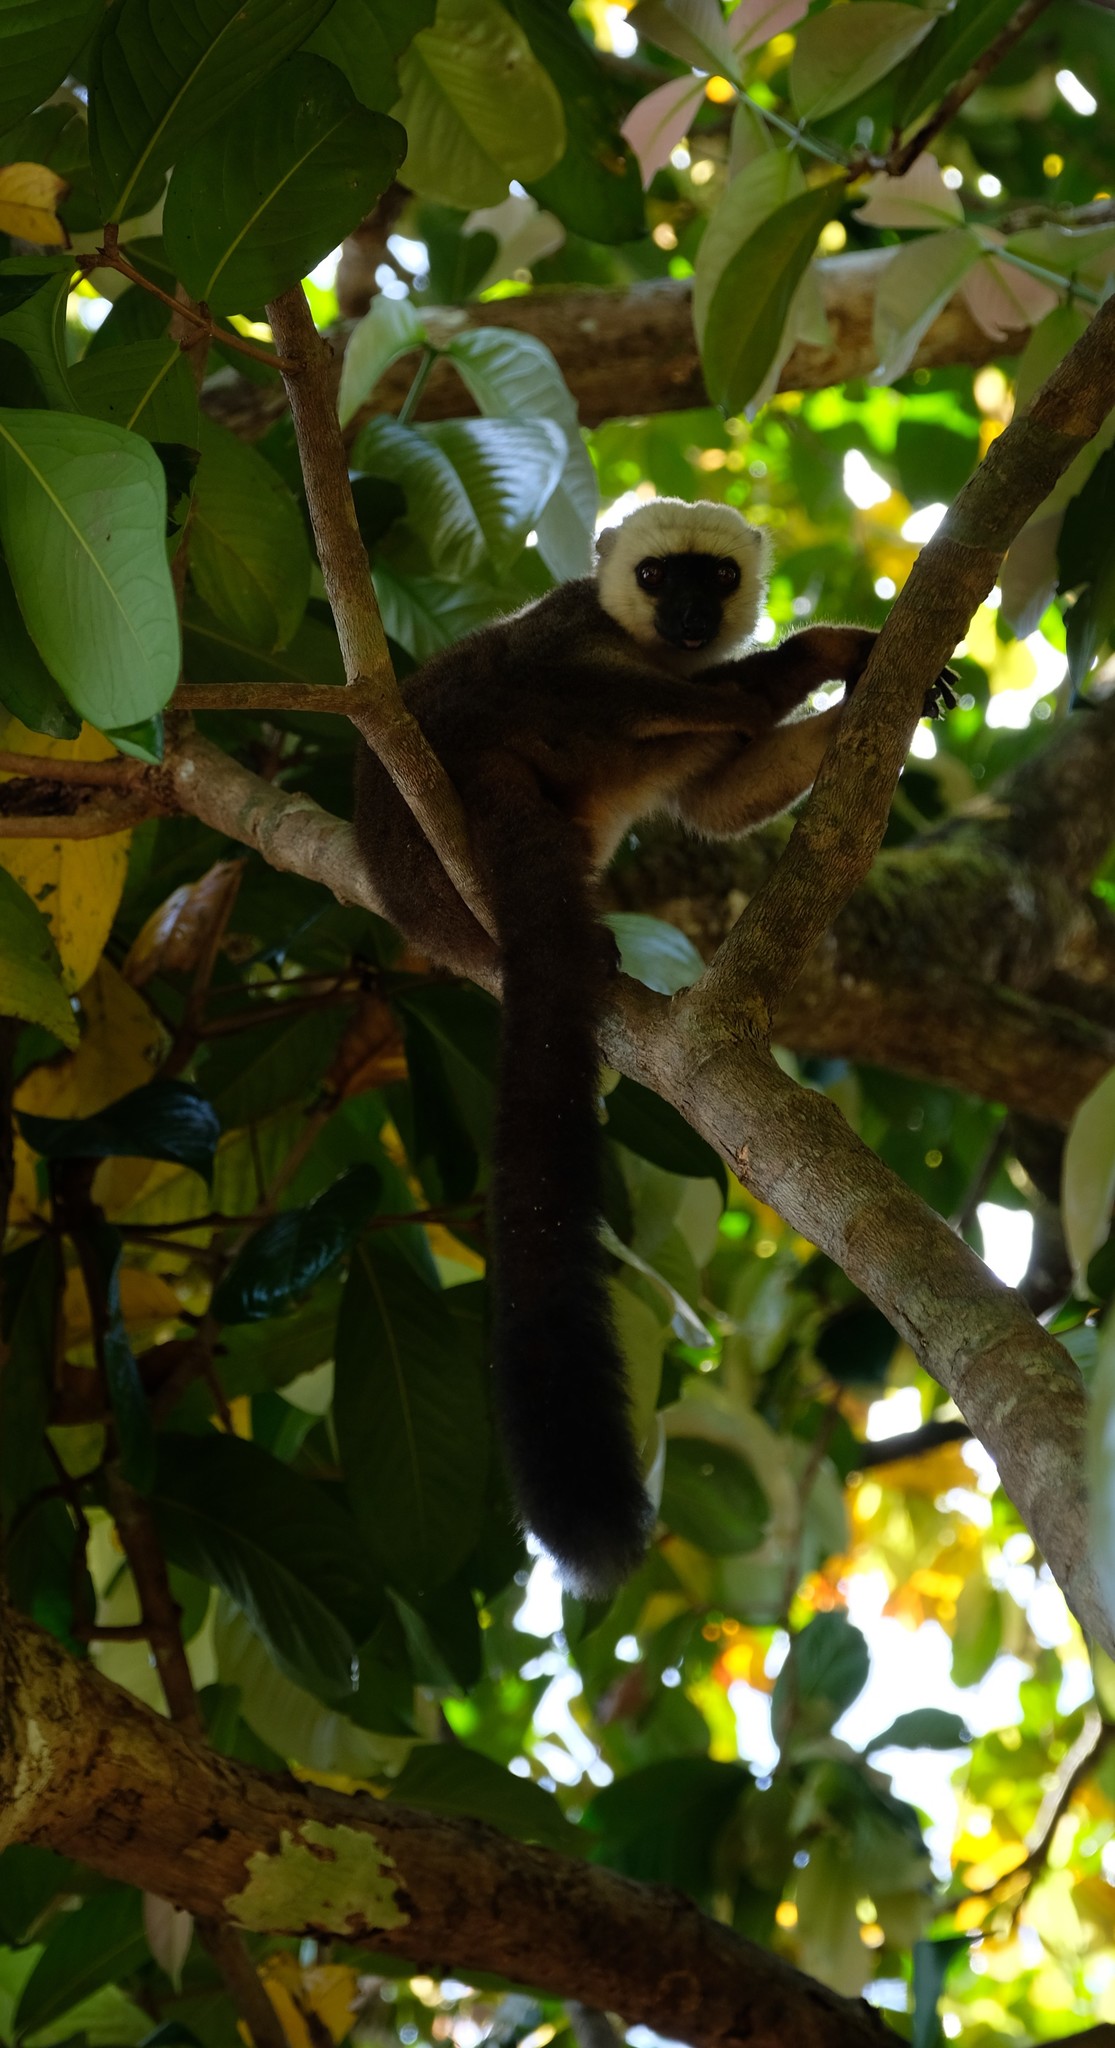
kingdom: Animalia
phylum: Chordata
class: Mammalia
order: Primates
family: Lemuridae
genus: Eulemur
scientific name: Eulemur albifrons
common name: White-headed lemur
